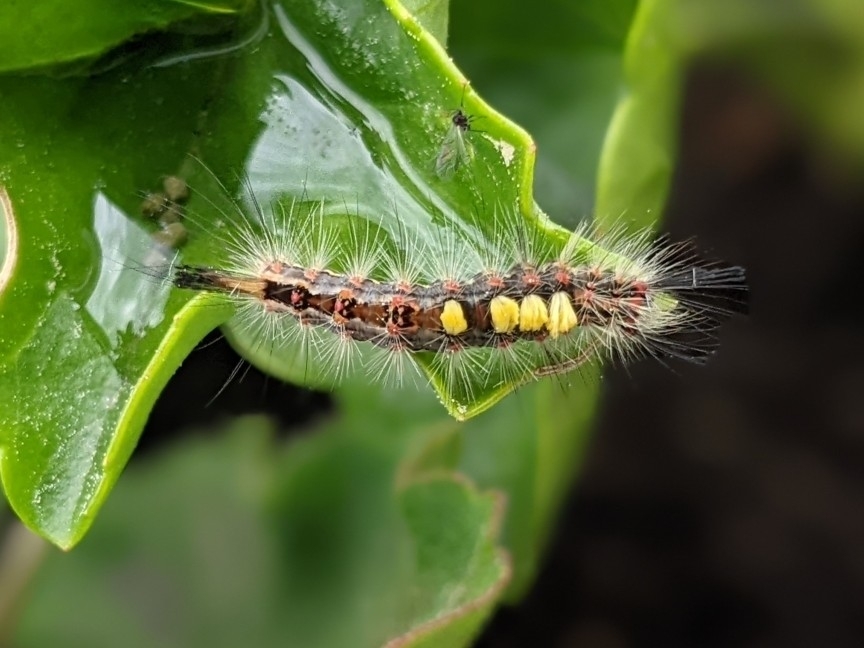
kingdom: Animalia
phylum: Arthropoda
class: Insecta
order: Lepidoptera
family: Erebidae
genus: Orgyia
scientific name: Orgyia antiqua
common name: Vapourer
